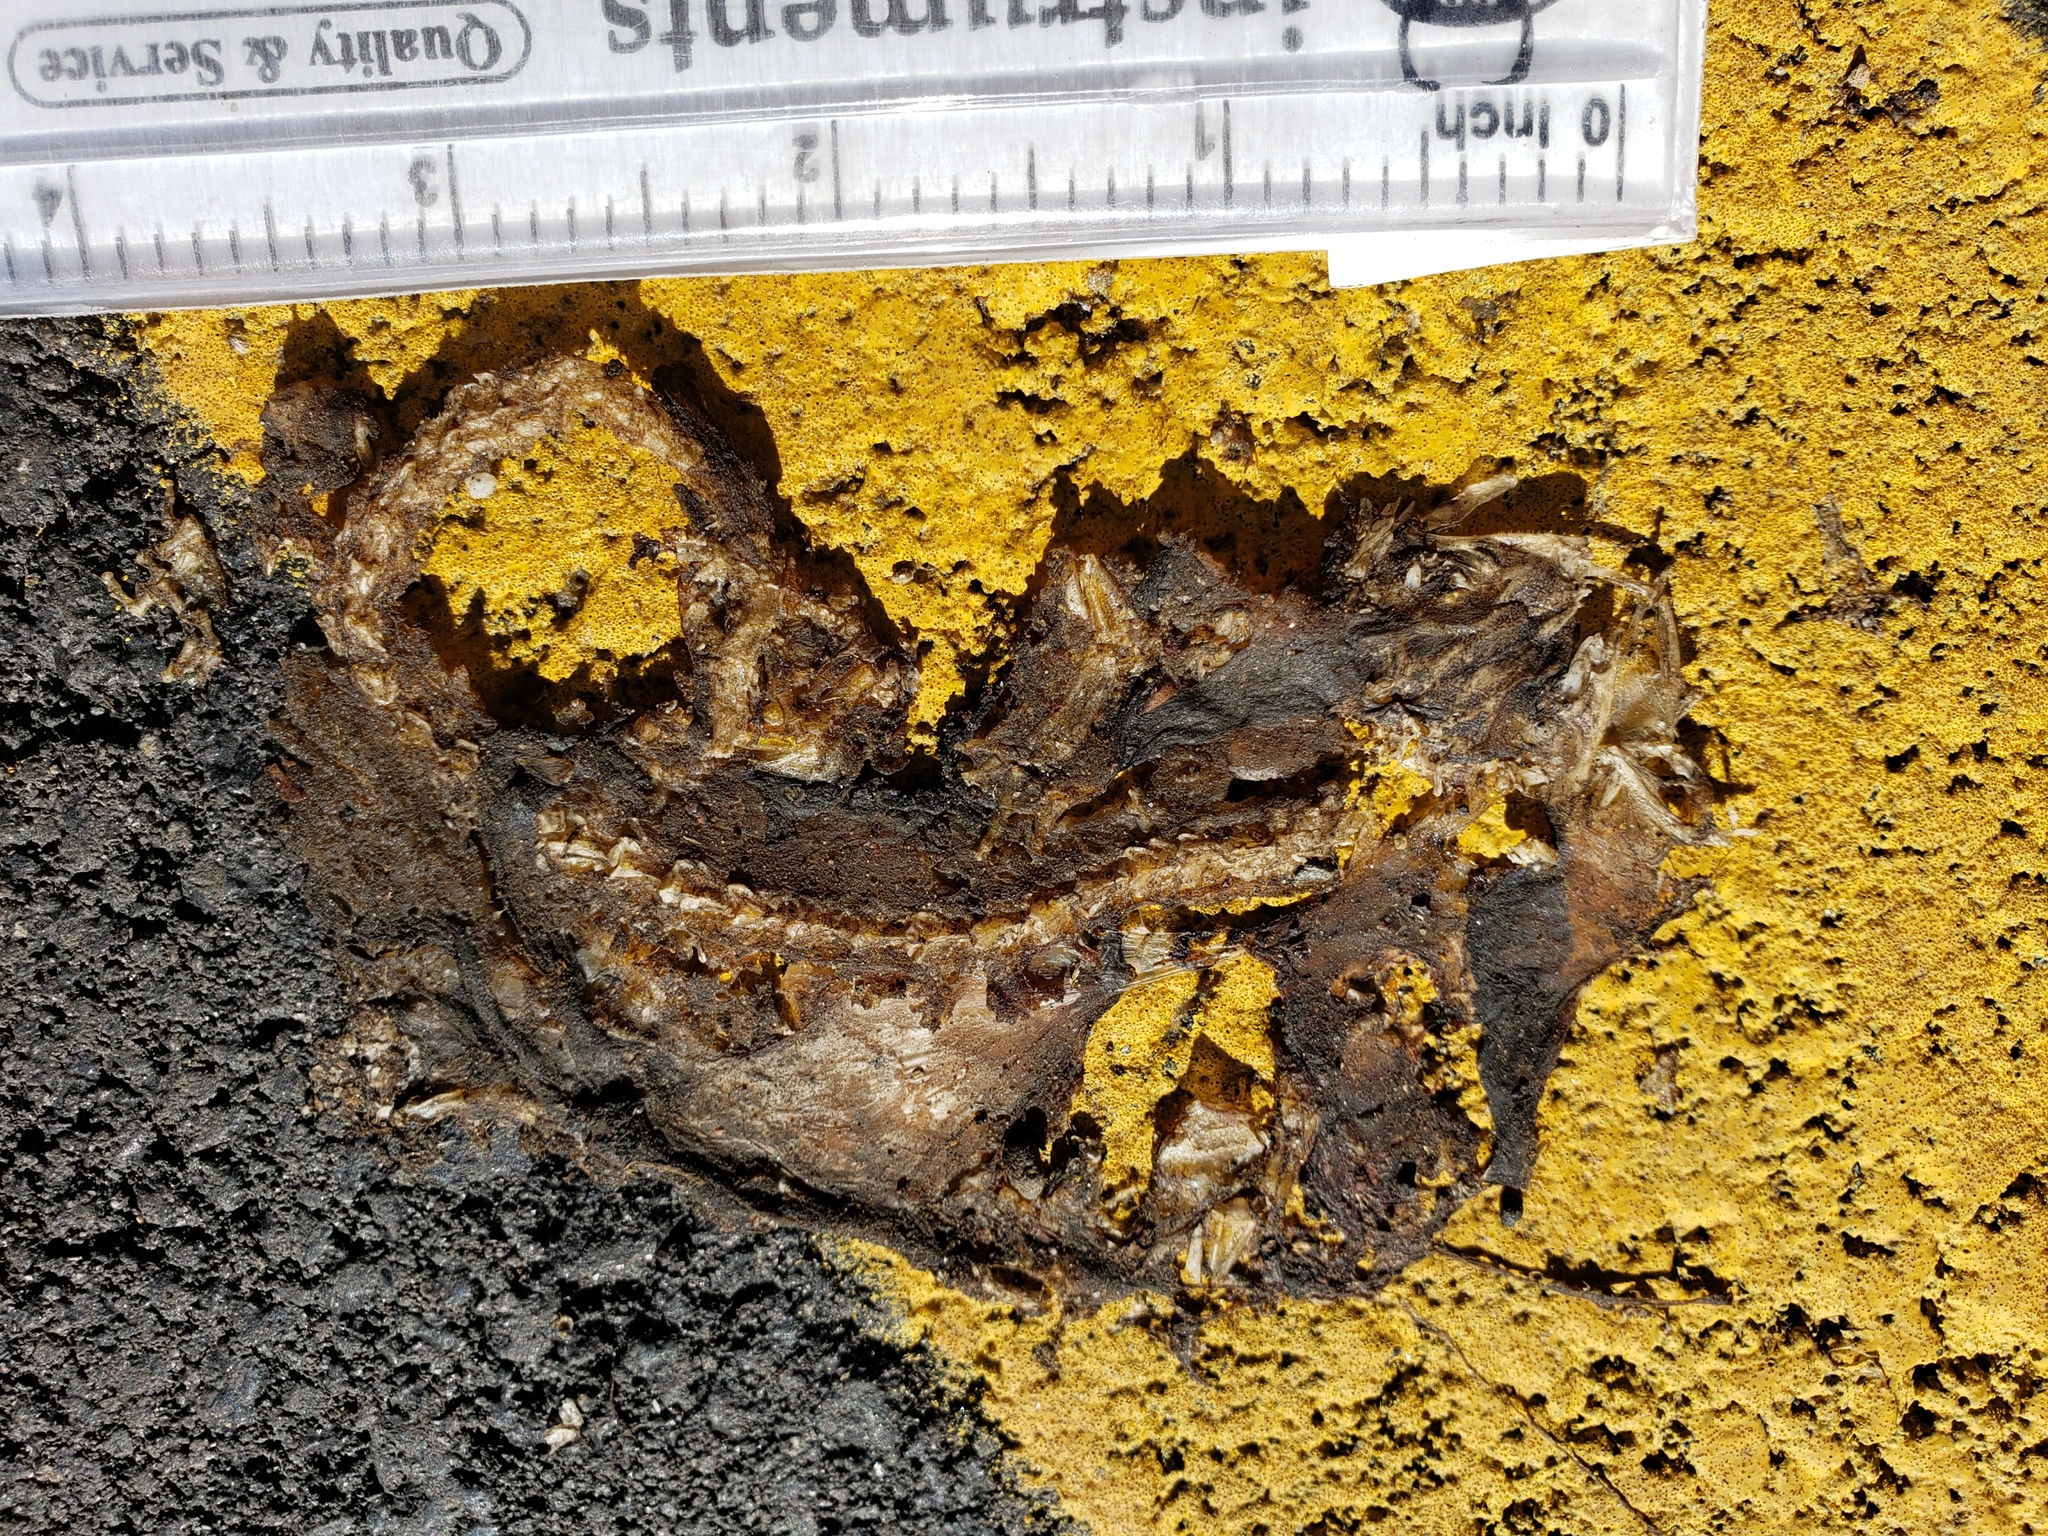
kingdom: Animalia
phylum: Chordata
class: Amphibia
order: Caudata
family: Salamandridae
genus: Taricha
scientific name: Taricha
